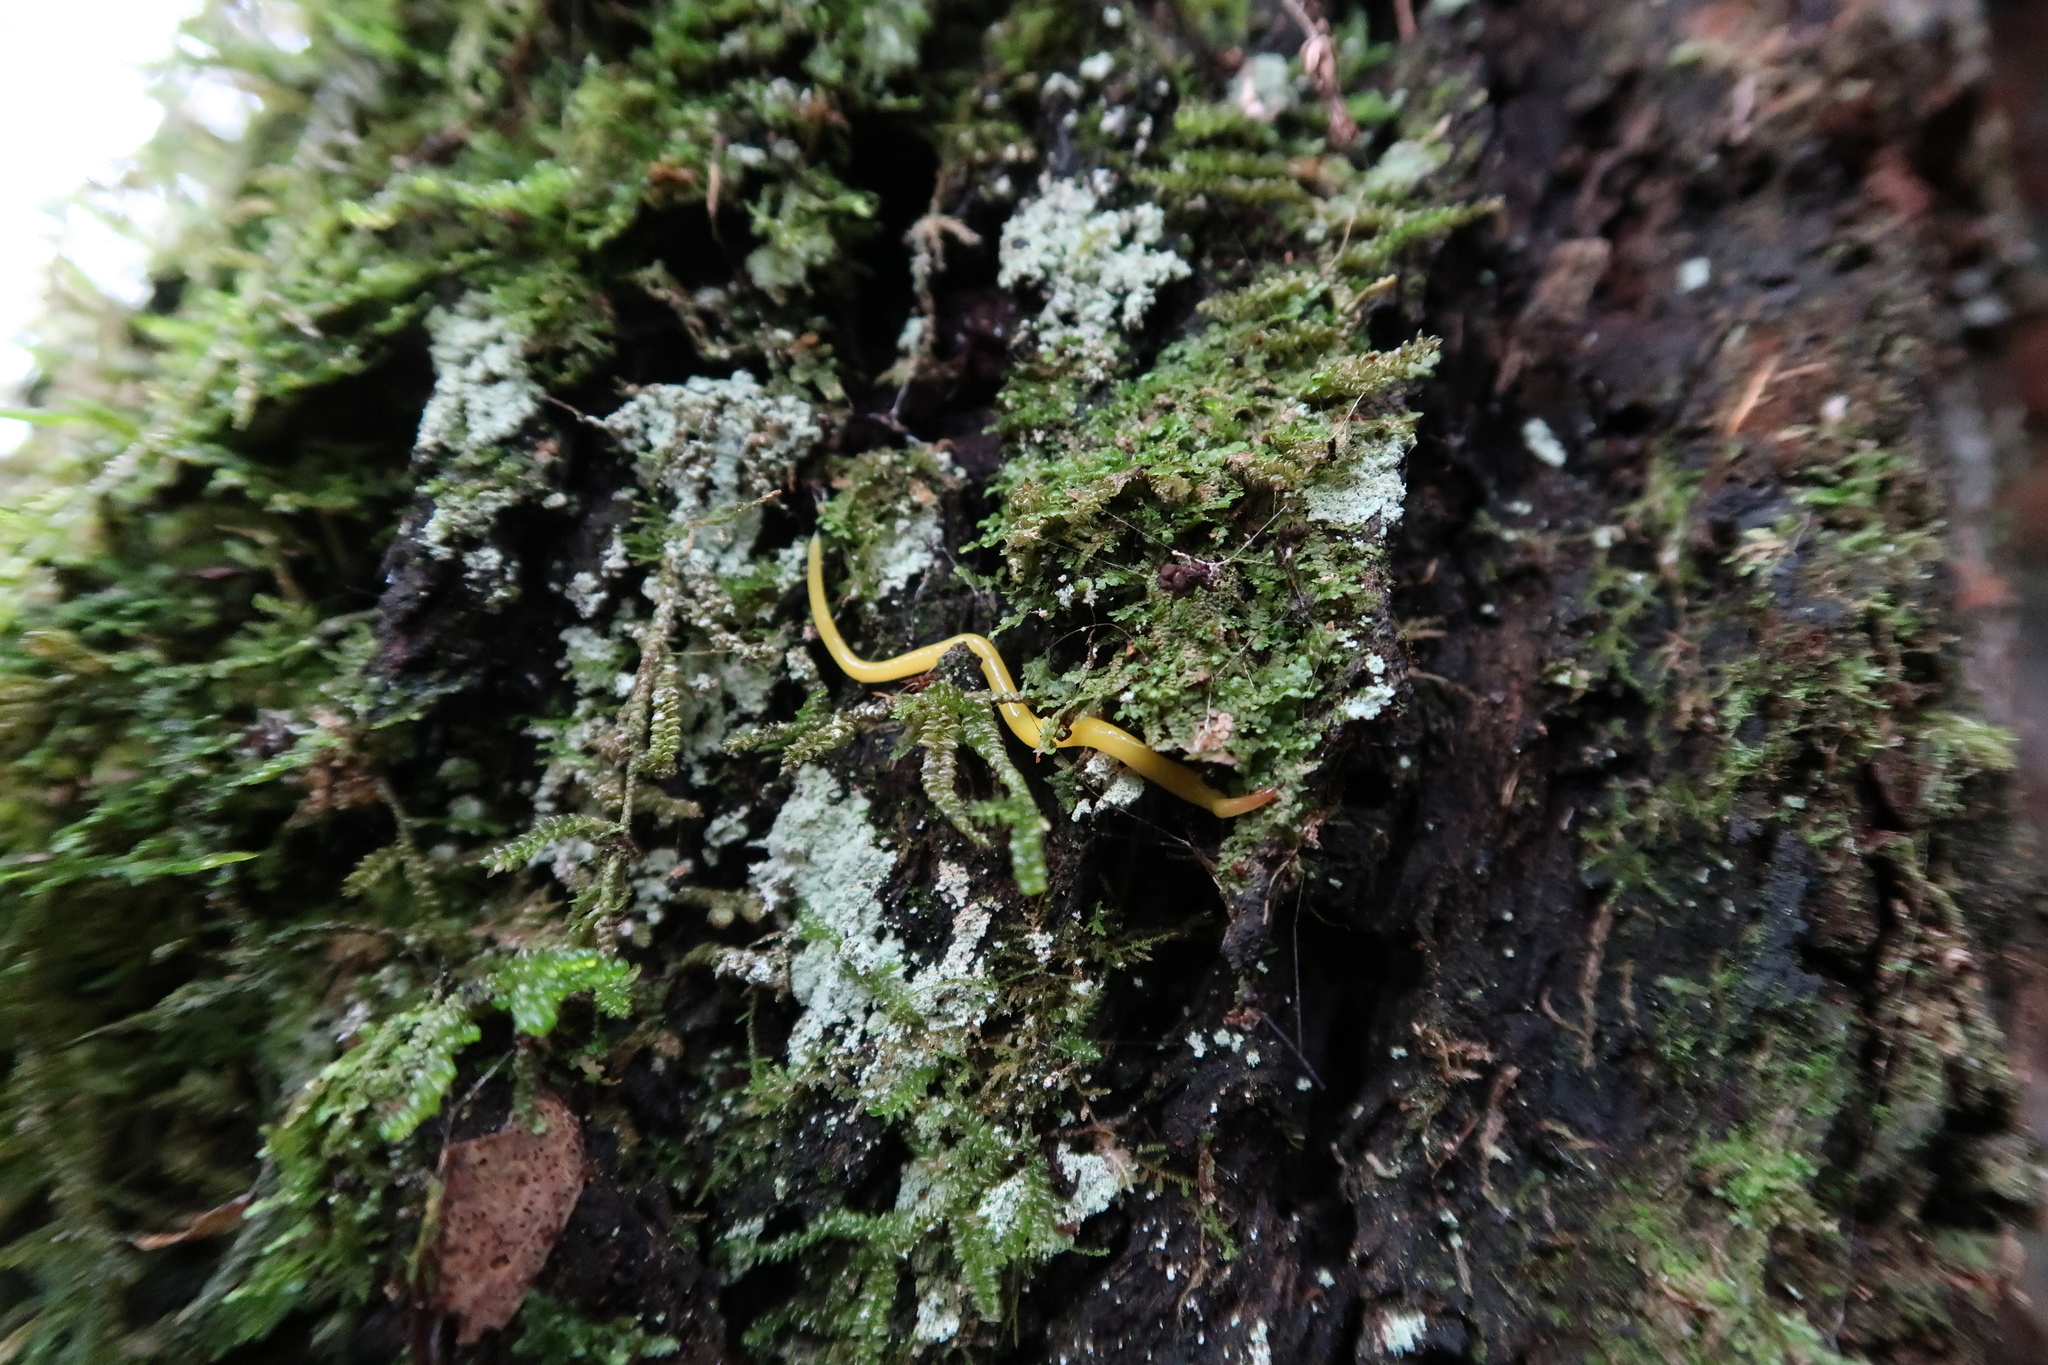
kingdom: Animalia
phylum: Platyhelminthes
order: Tricladida
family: Geoplanidae
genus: Fletchamia
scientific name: Fletchamia sugdeni
